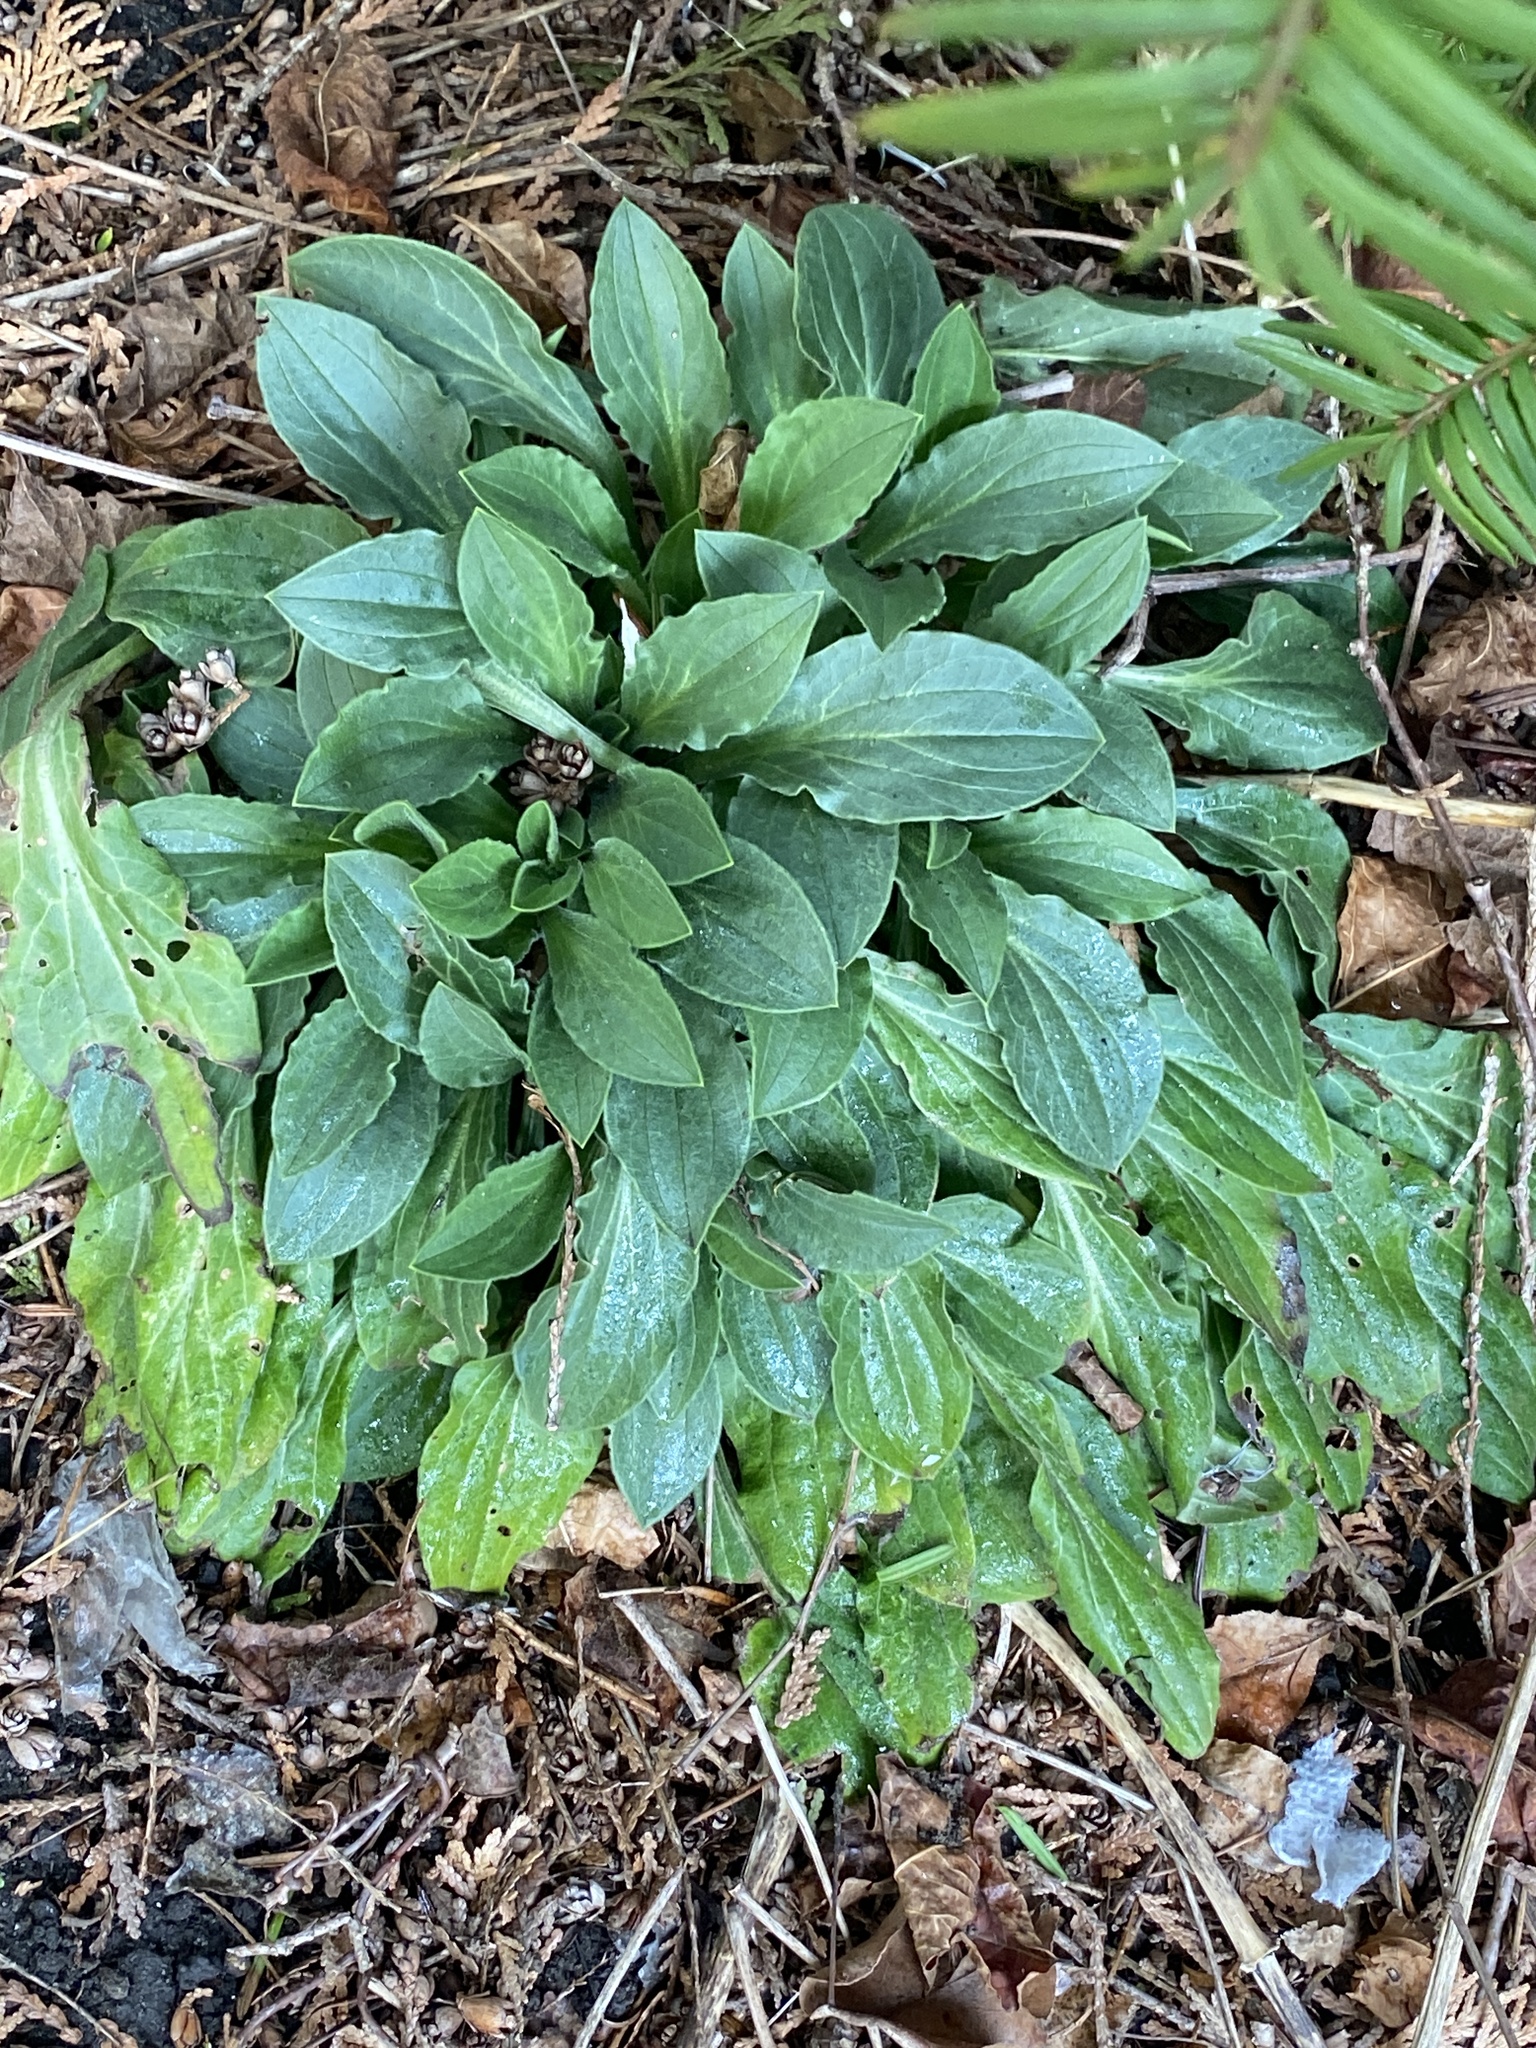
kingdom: Plantae
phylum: Tracheophyta
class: Magnoliopsida
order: Caryophyllales
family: Caryophyllaceae
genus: Silene
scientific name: Silene latifolia
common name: White campion
